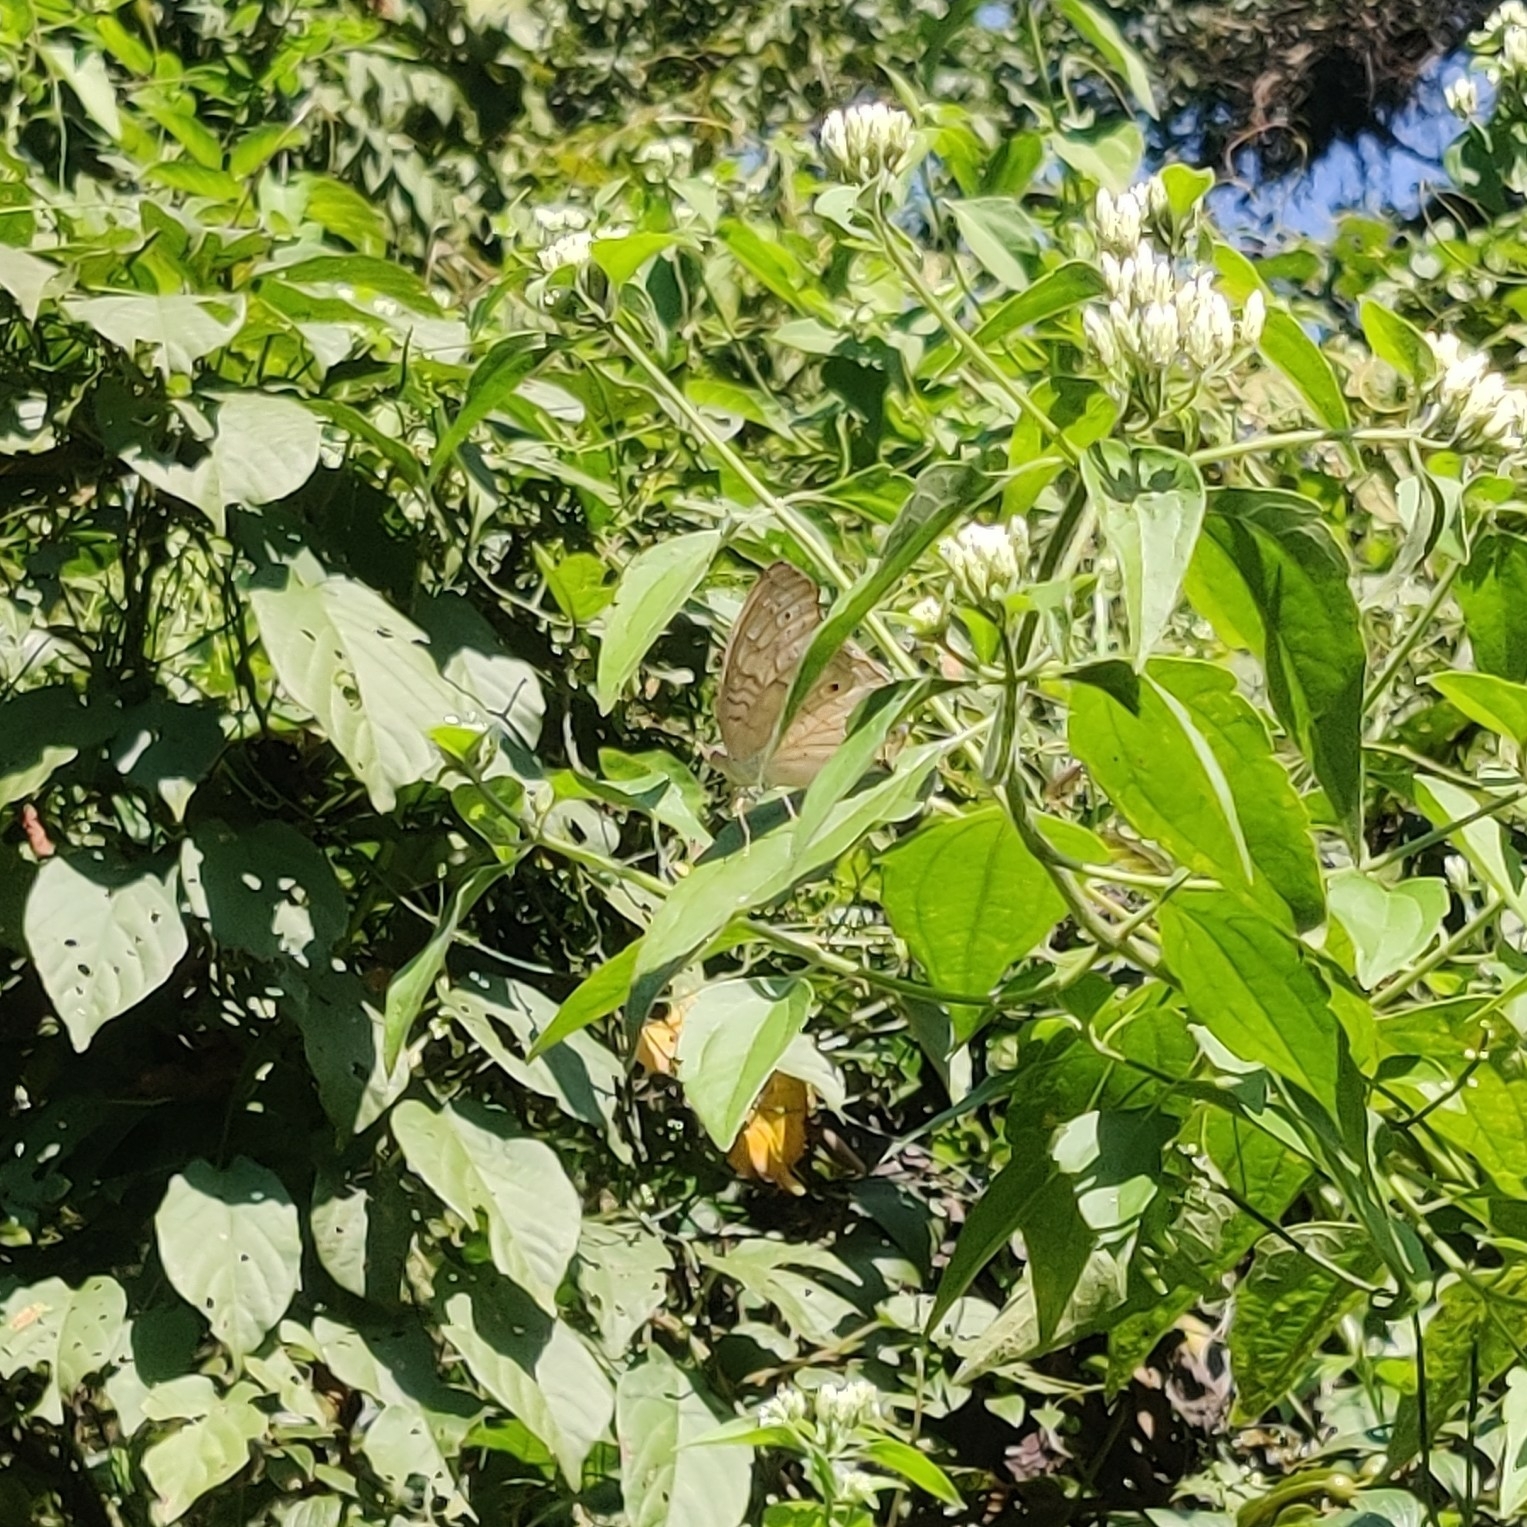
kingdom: Animalia
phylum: Arthropoda
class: Insecta
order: Lepidoptera
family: Nymphalidae
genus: Junonia
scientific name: Junonia atlites
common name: Grey pansy
